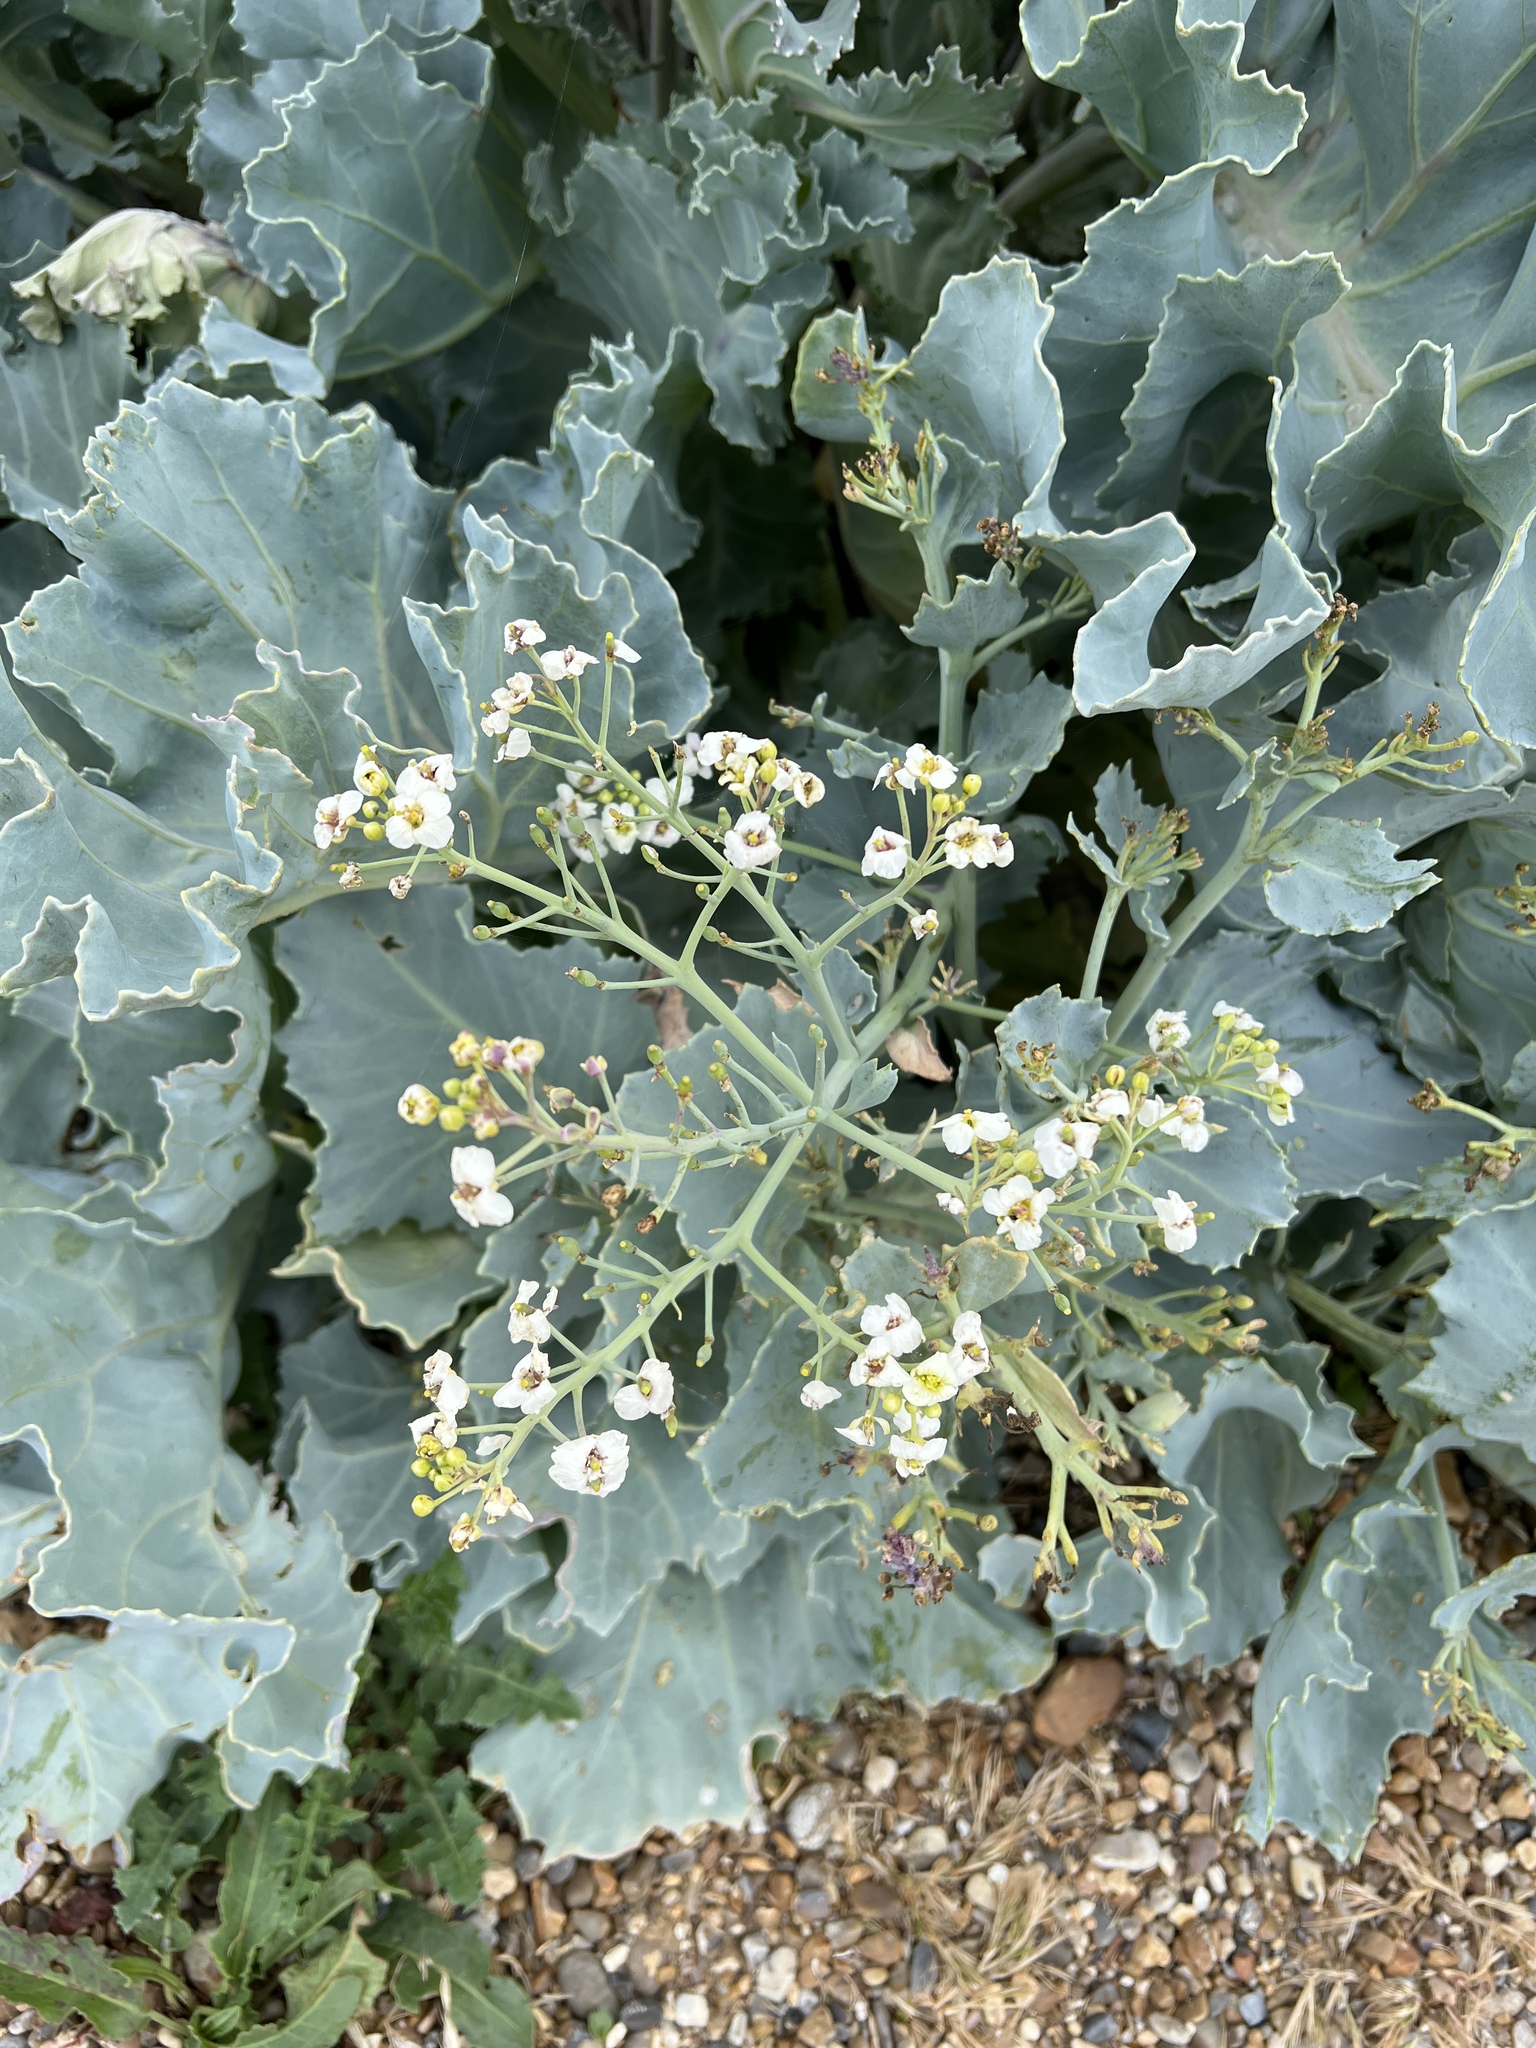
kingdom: Plantae
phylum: Tracheophyta
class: Magnoliopsida
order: Brassicales
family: Brassicaceae
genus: Crambe
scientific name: Crambe maritima
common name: Sea-kale
